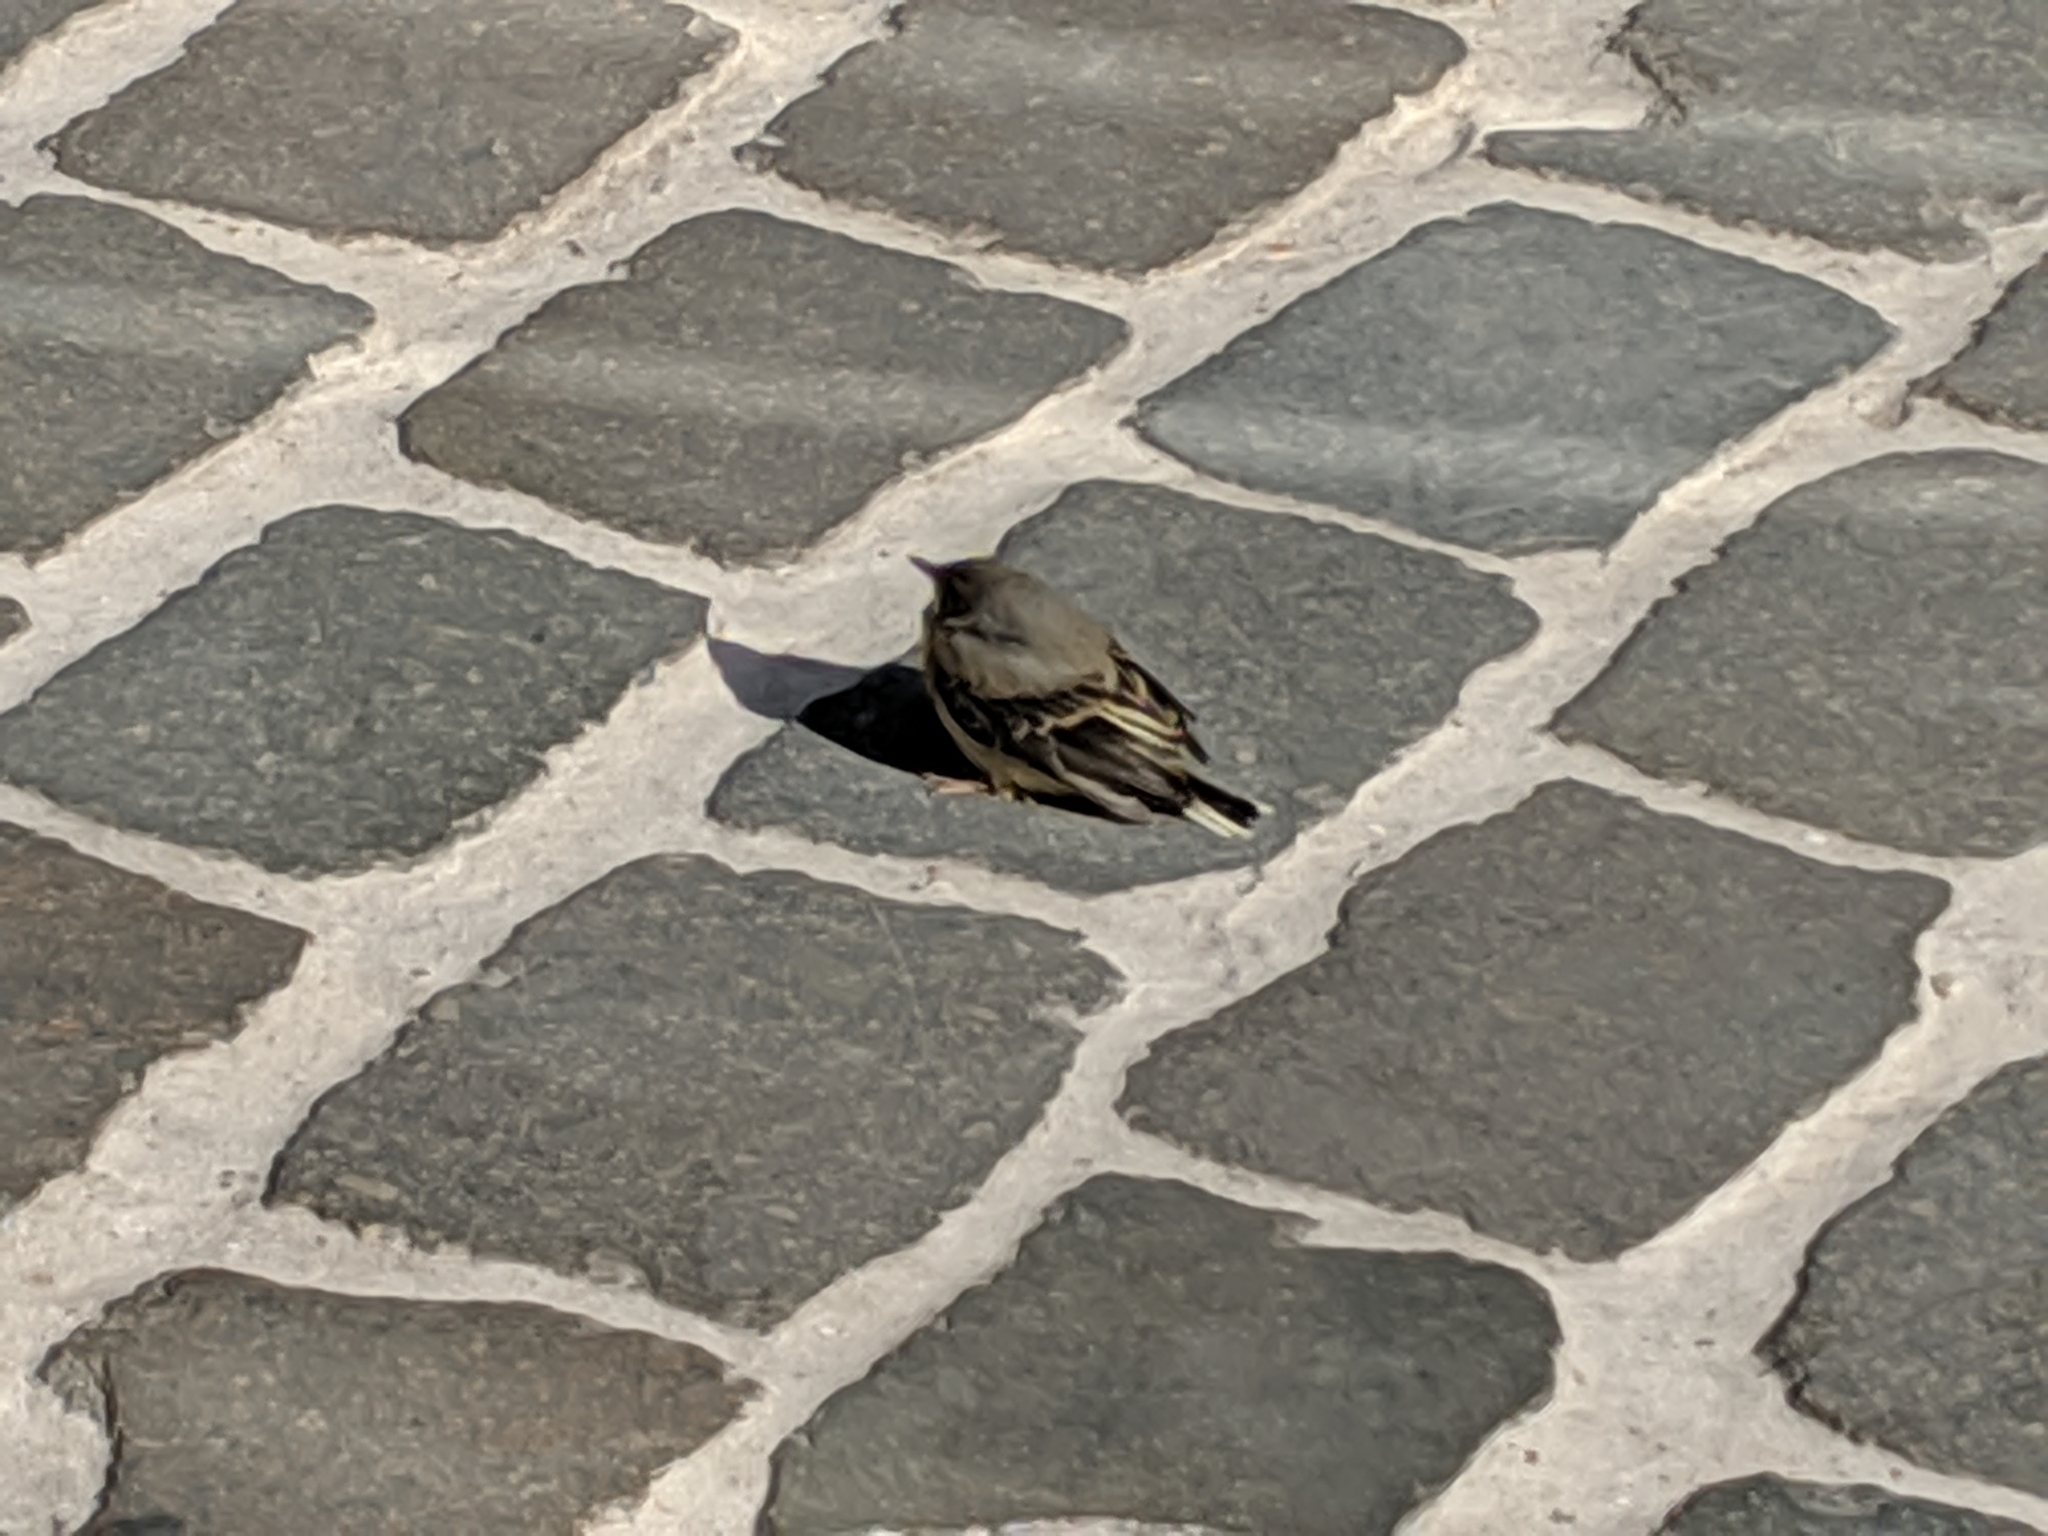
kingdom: Animalia
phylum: Chordata
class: Aves
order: Passeriformes
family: Motacillidae
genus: Motacilla
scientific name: Motacilla cinerea
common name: Grey wagtail
